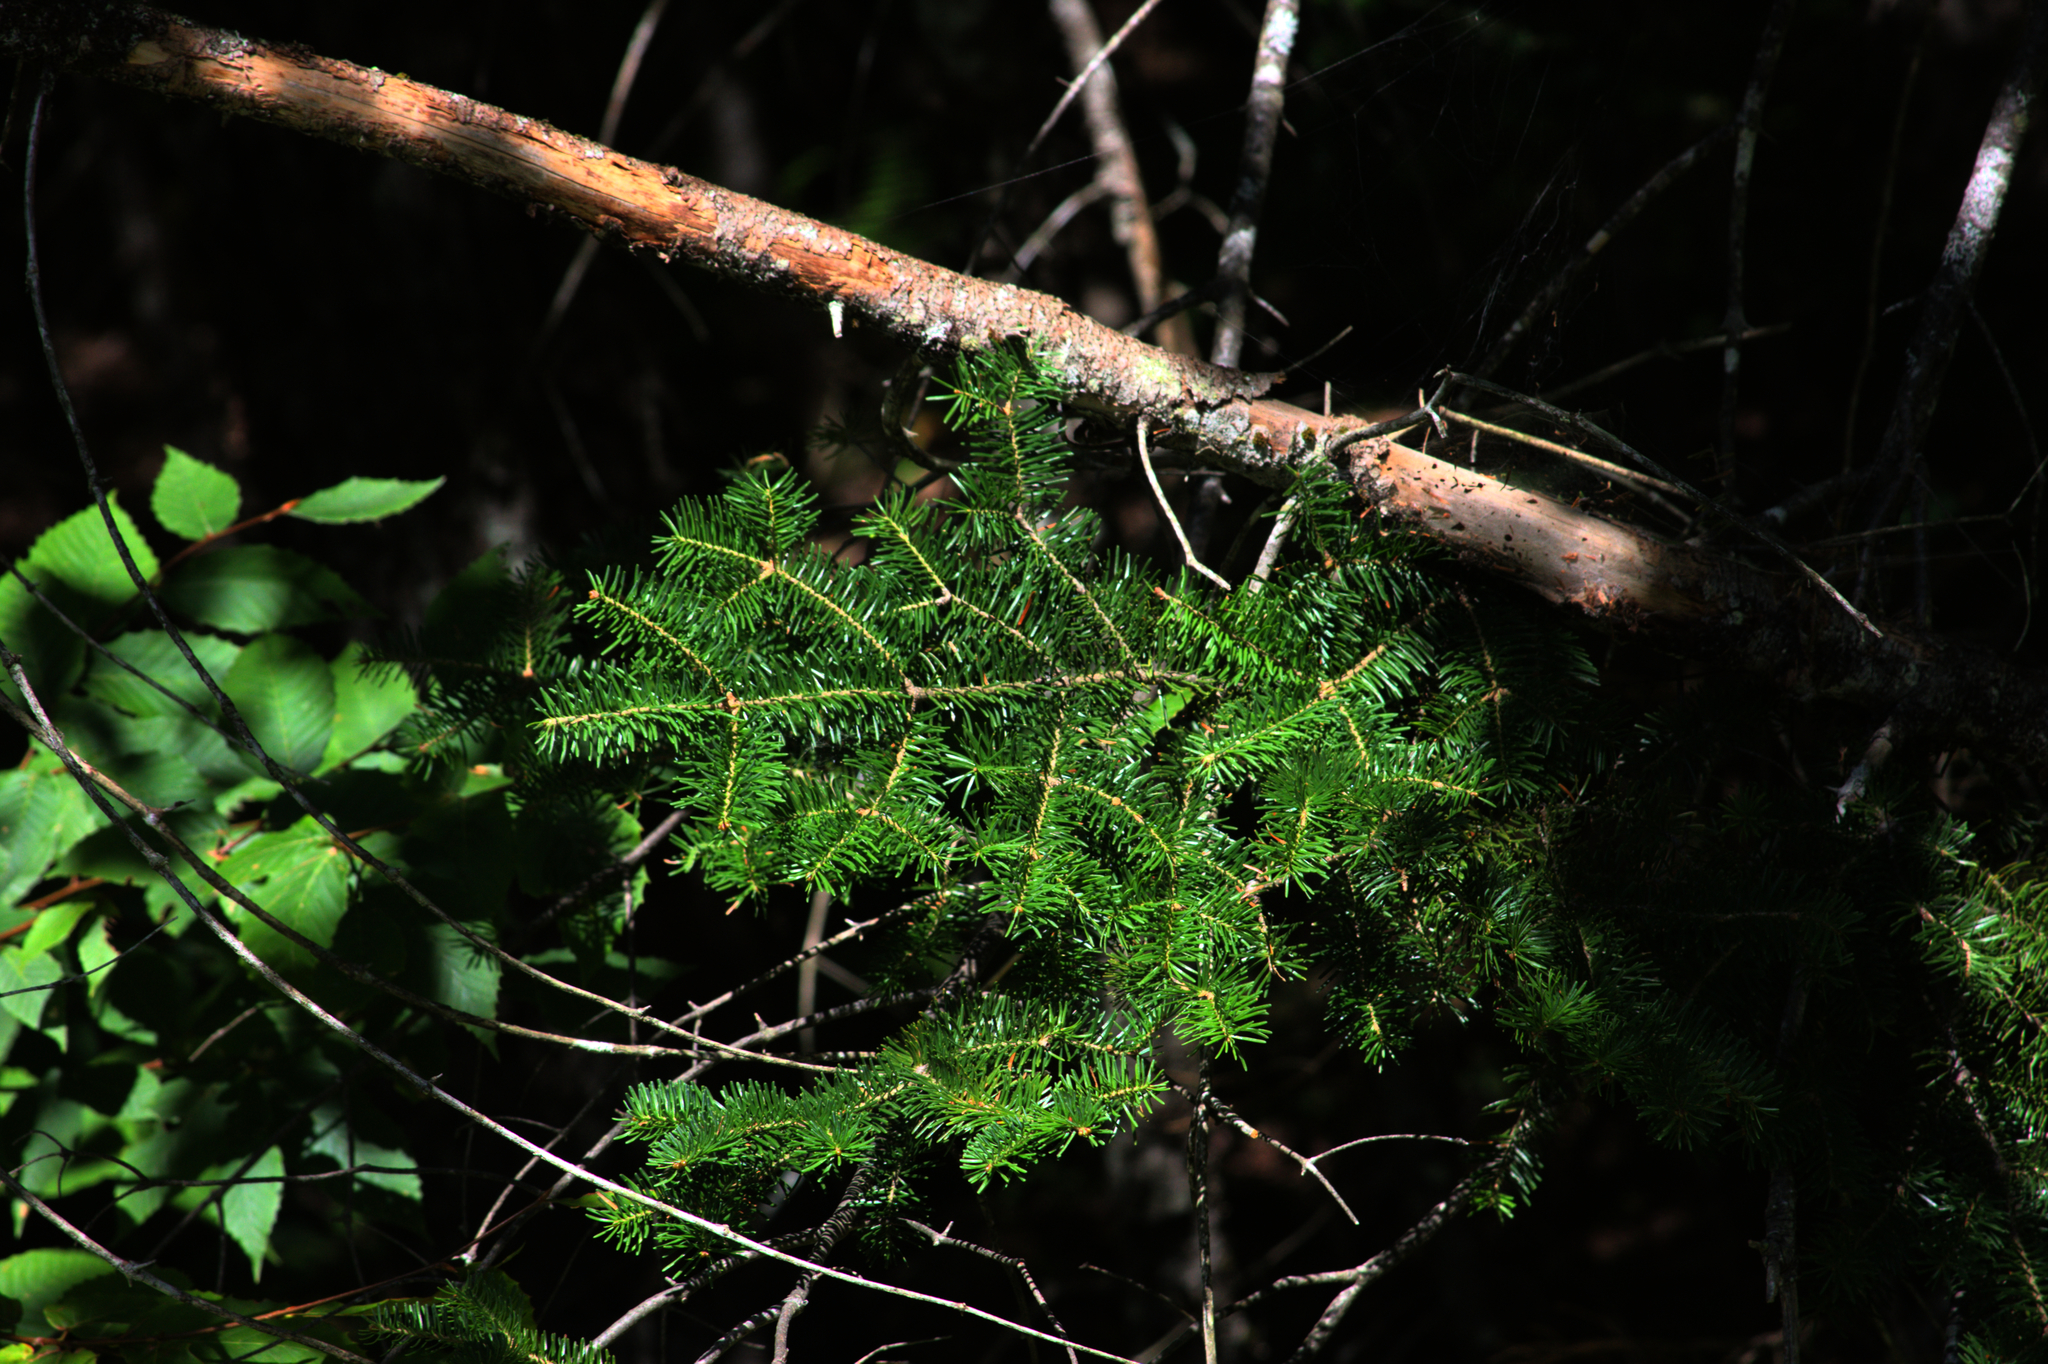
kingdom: Plantae
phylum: Tracheophyta
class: Pinopsida
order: Pinales
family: Pinaceae
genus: Abies
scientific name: Abies balsamea
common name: Balsam fir
